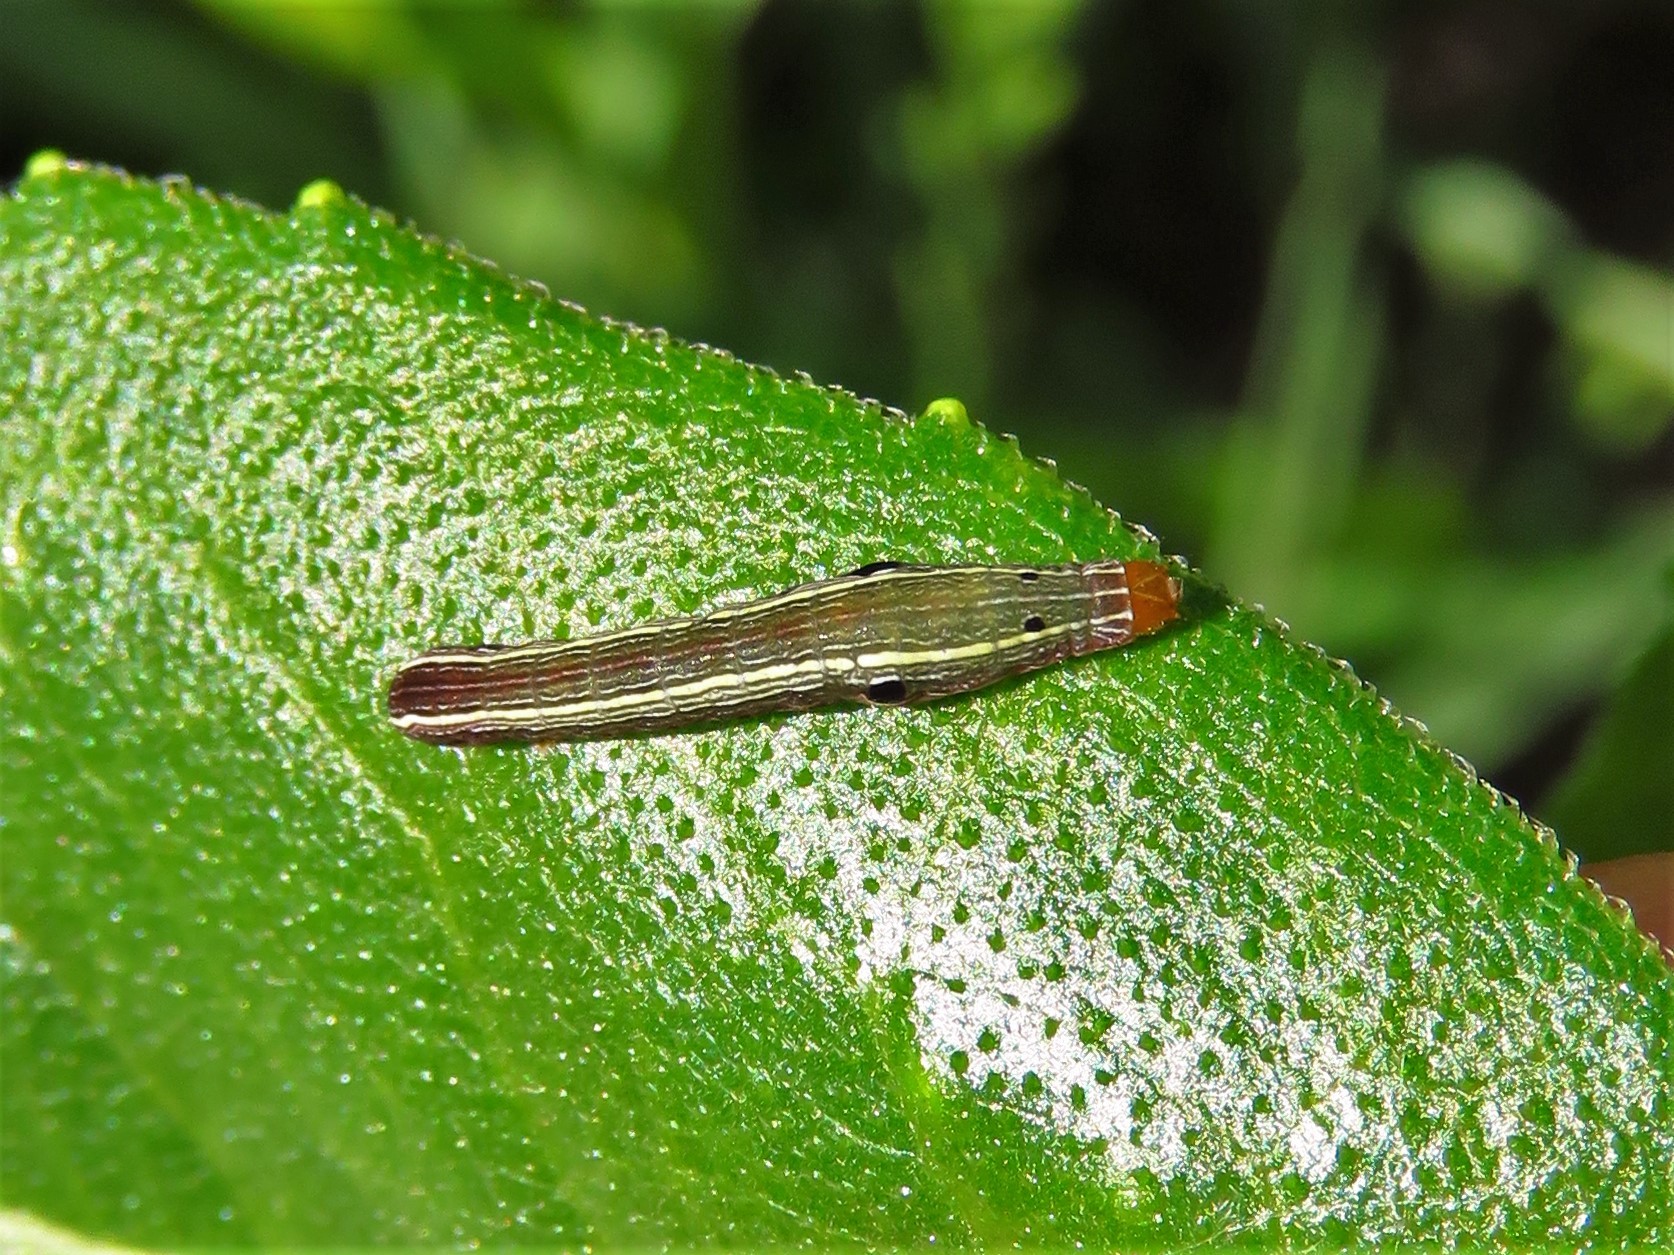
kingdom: Animalia
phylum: Arthropoda
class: Insecta
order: Lepidoptera
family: Noctuidae
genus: Spodoptera
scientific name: Spodoptera ornithogalli
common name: Yellow-striped armyworm
